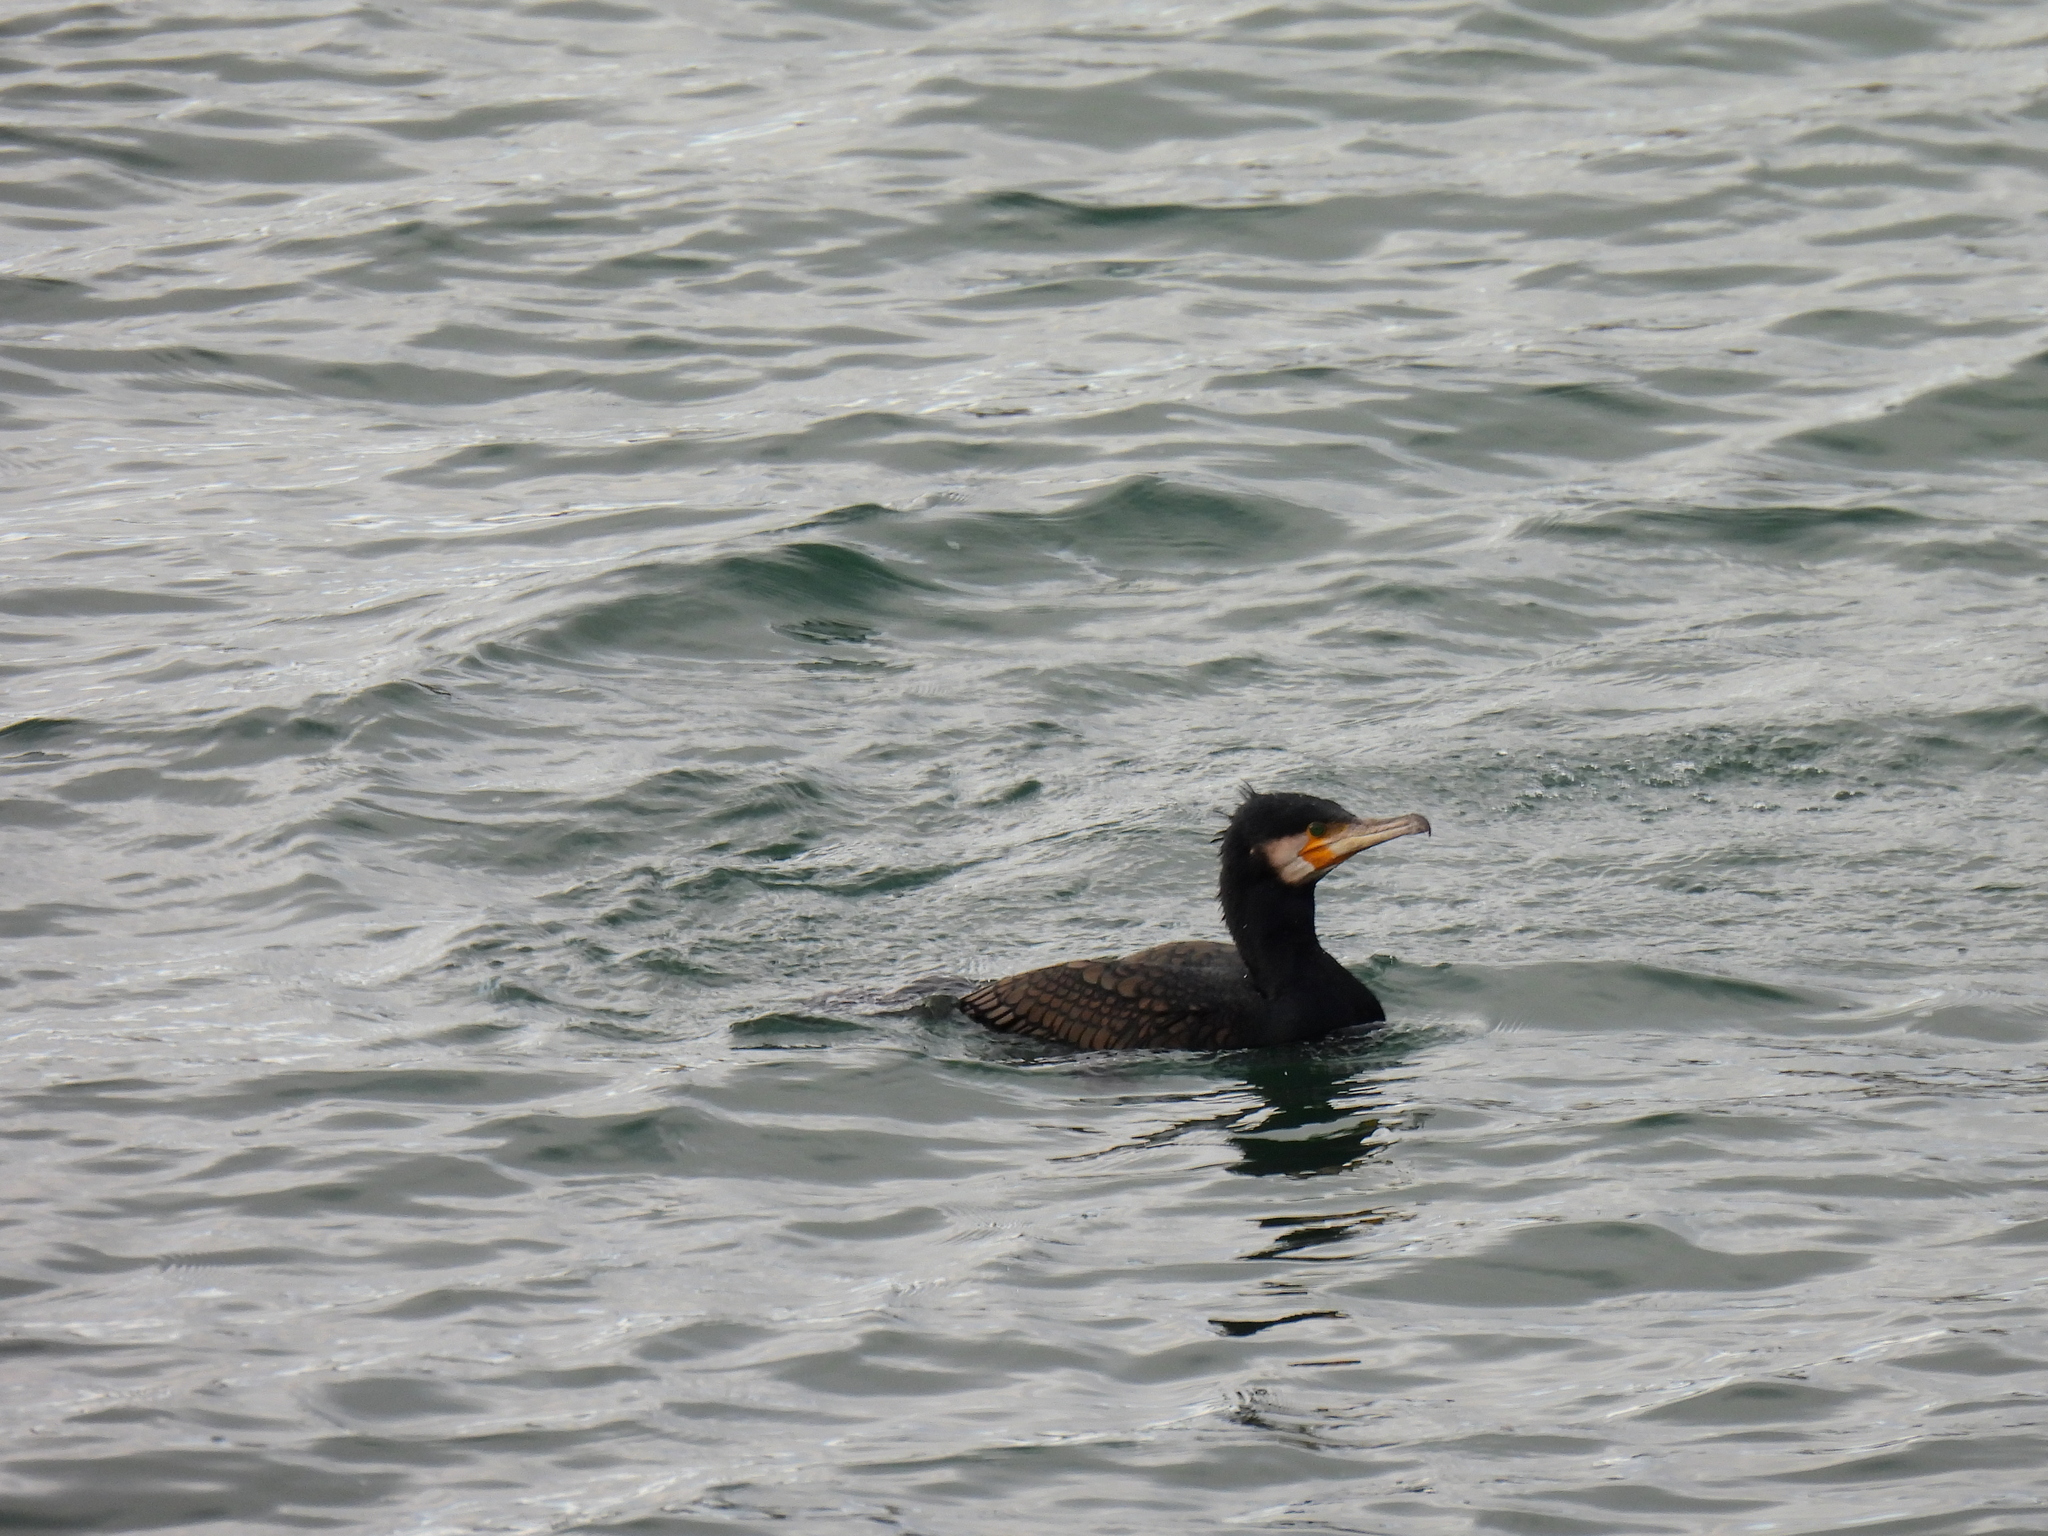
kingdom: Animalia
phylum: Chordata
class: Aves
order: Suliformes
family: Phalacrocoracidae
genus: Phalacrocorax
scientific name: Phalacrocorax carbo
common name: Great cormorant
